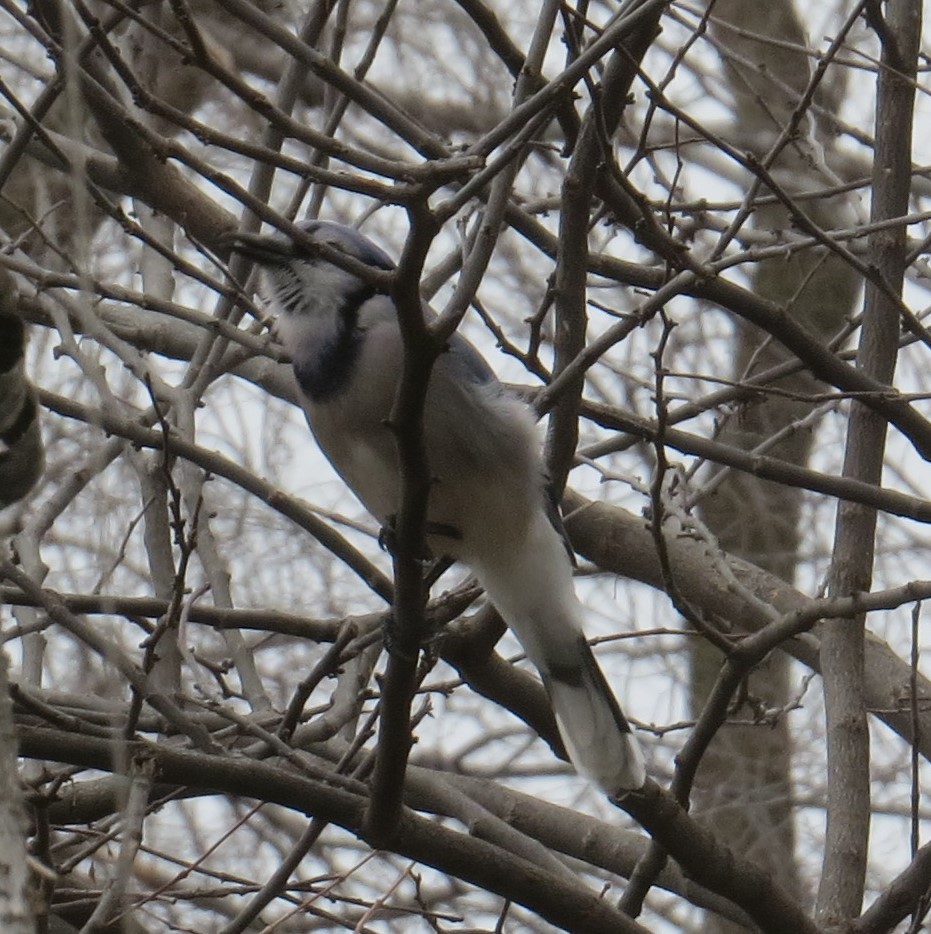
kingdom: Animalia
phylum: Chordata
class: Aves
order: Passeriformes
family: Corvidae
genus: Cyanocitta
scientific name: Cyanocitta cristata
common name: Blue jay
